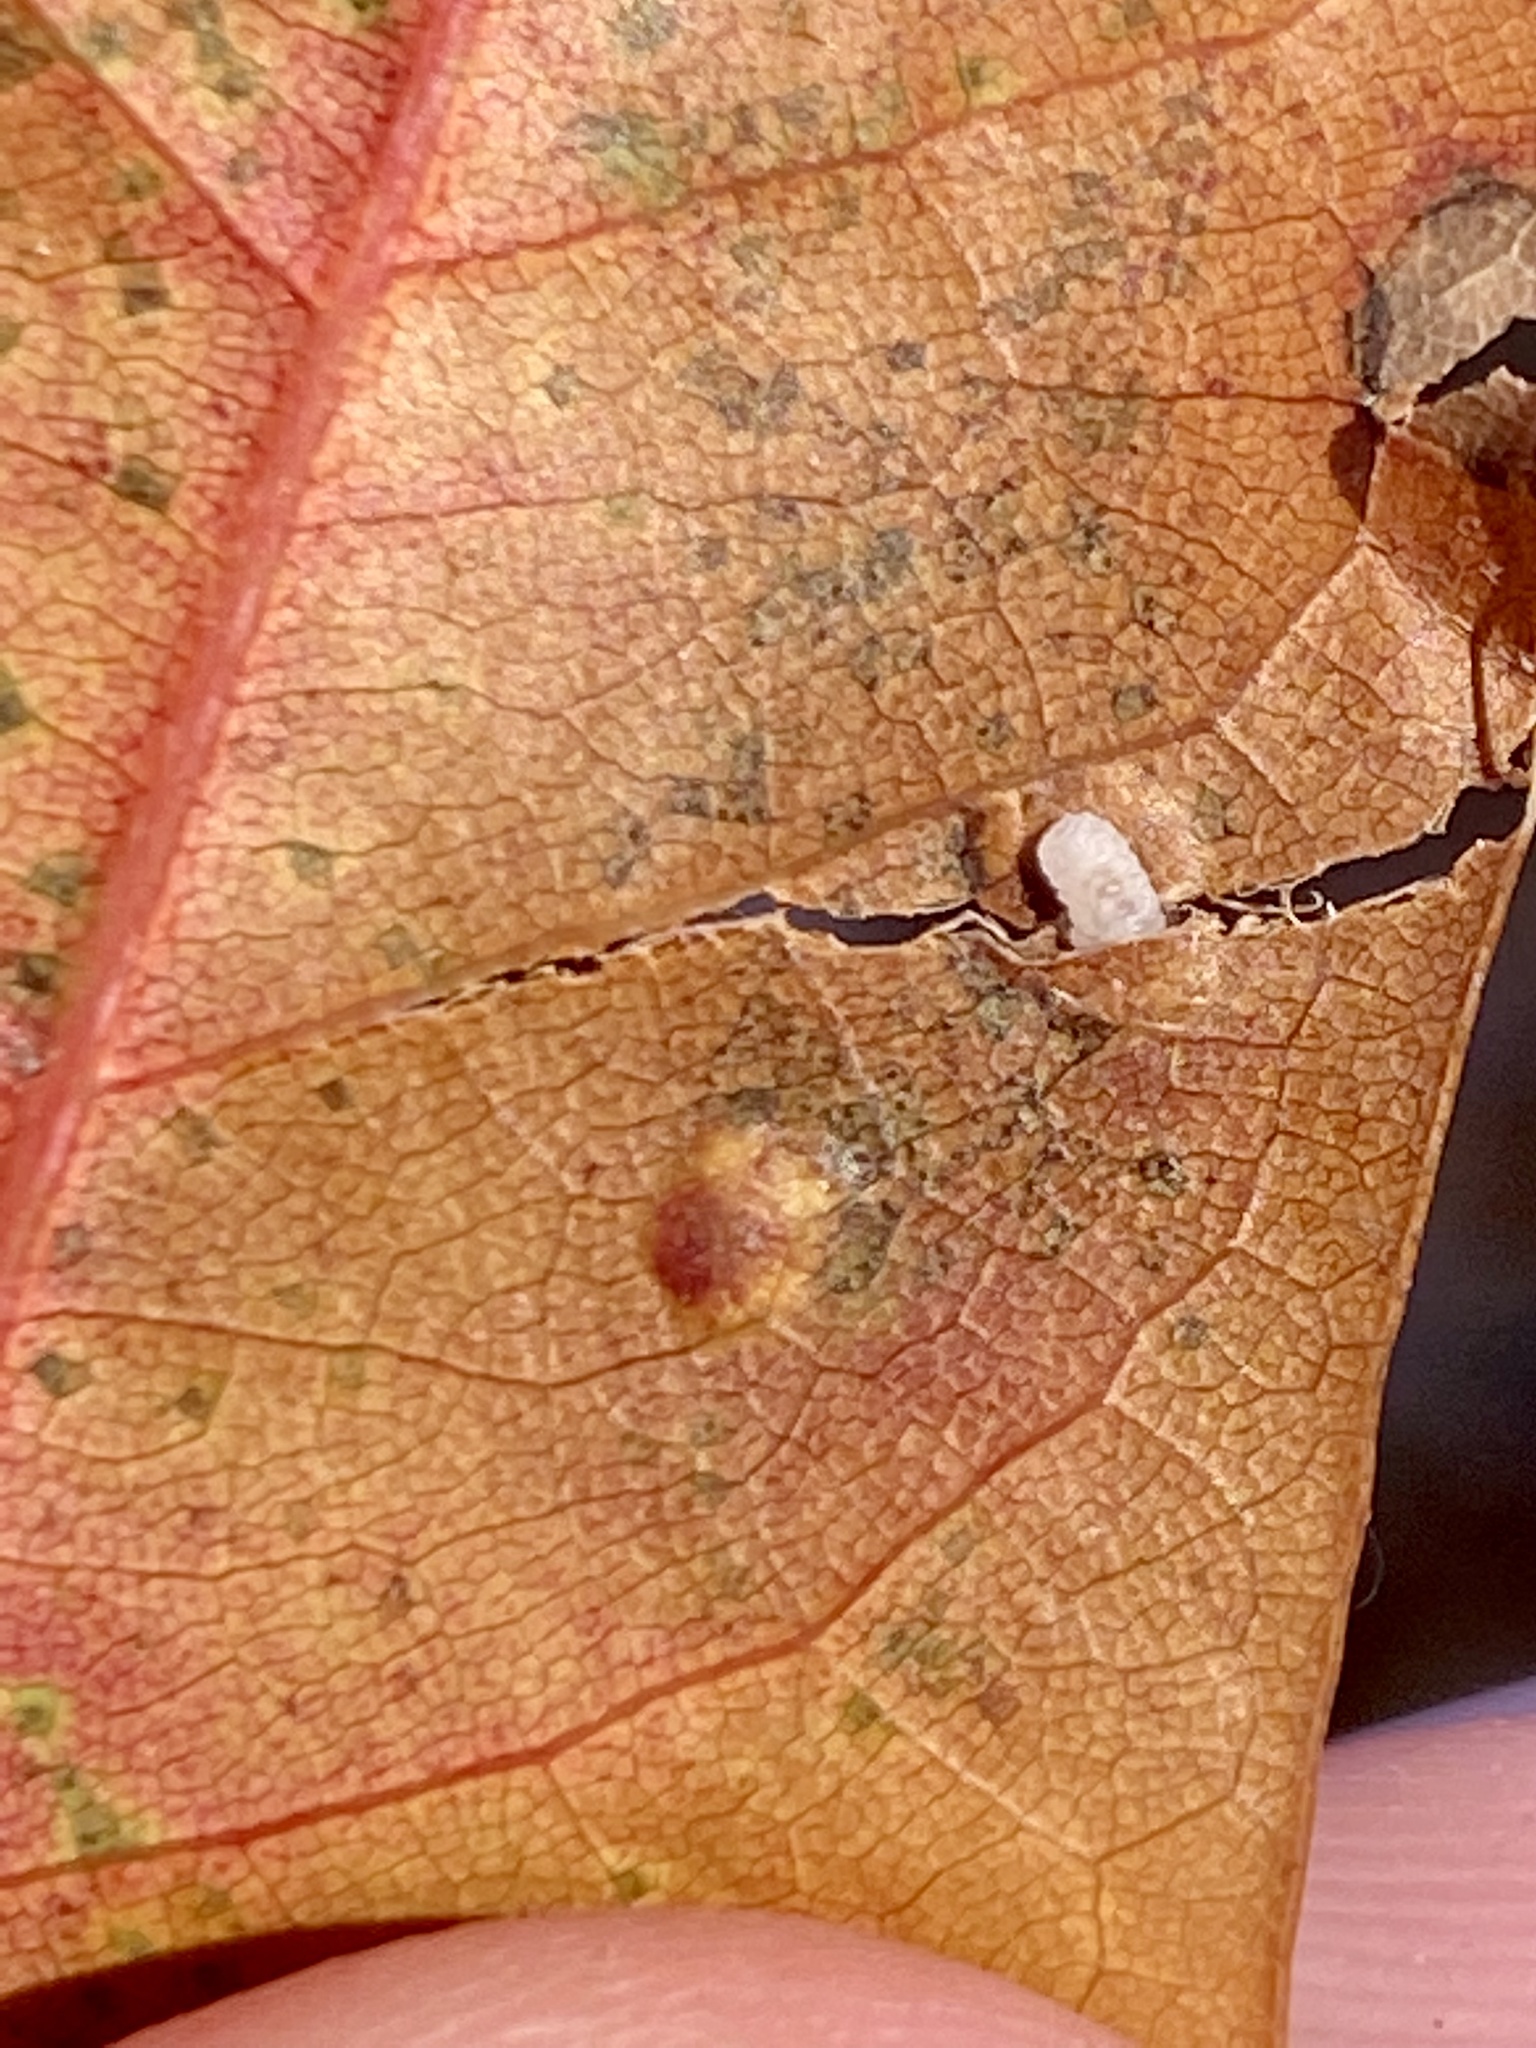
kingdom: Animalia
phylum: Arthropoda
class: Insecta
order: Hymenoptera
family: Cynipidae
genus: Neuroterus
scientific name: Neuroterus niger
